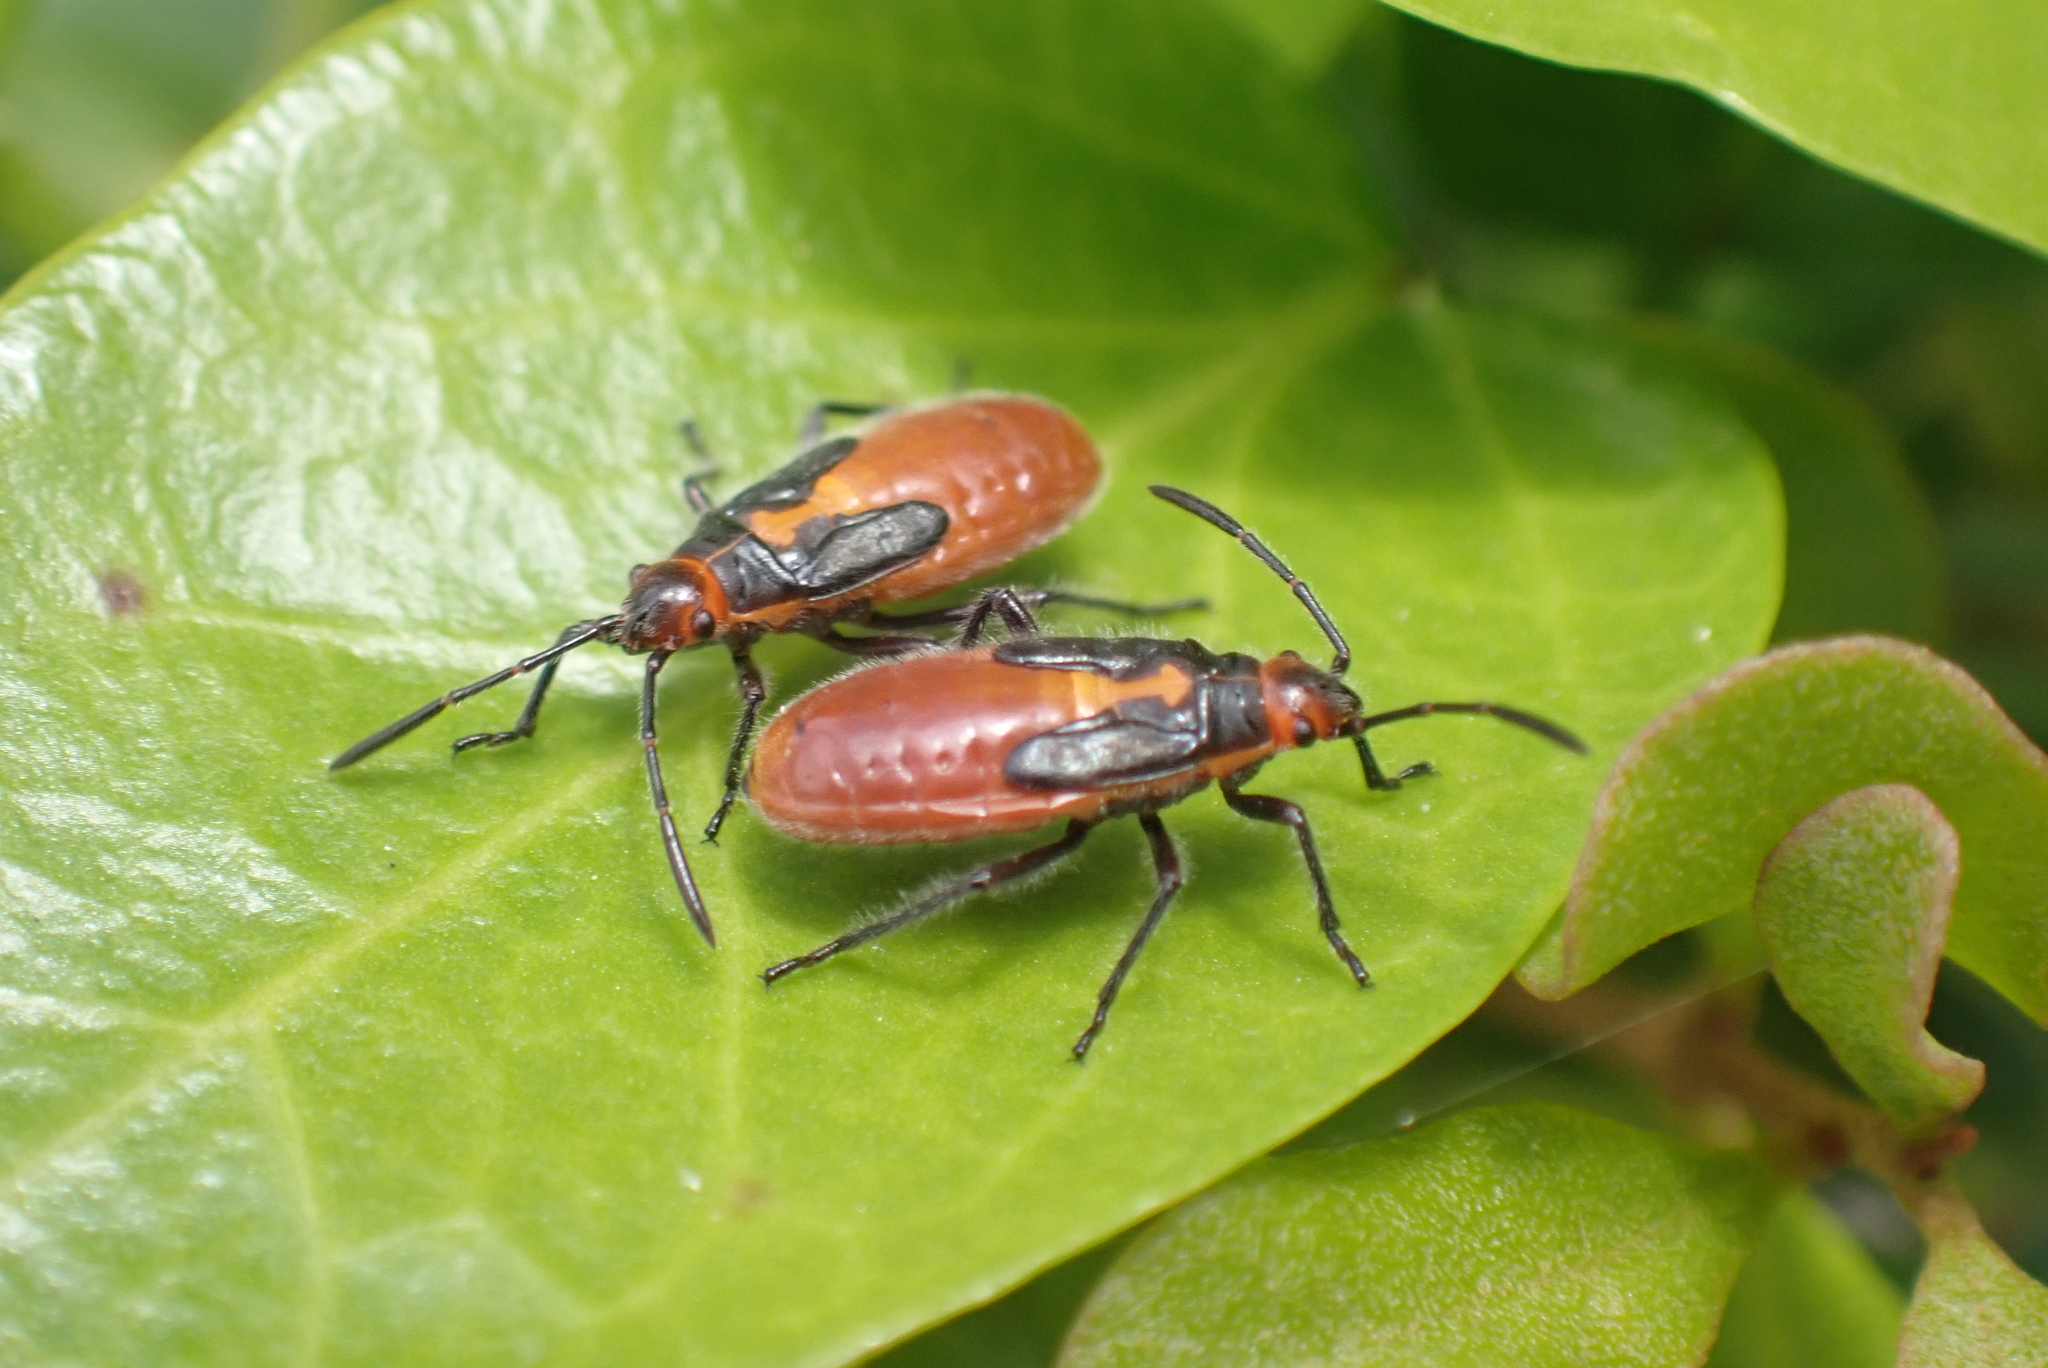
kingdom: Animalia
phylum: Arthropoda
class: Insecta
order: Hemiptera
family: Lygaeidae
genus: Caenocoris
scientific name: Caenocoris nerii
